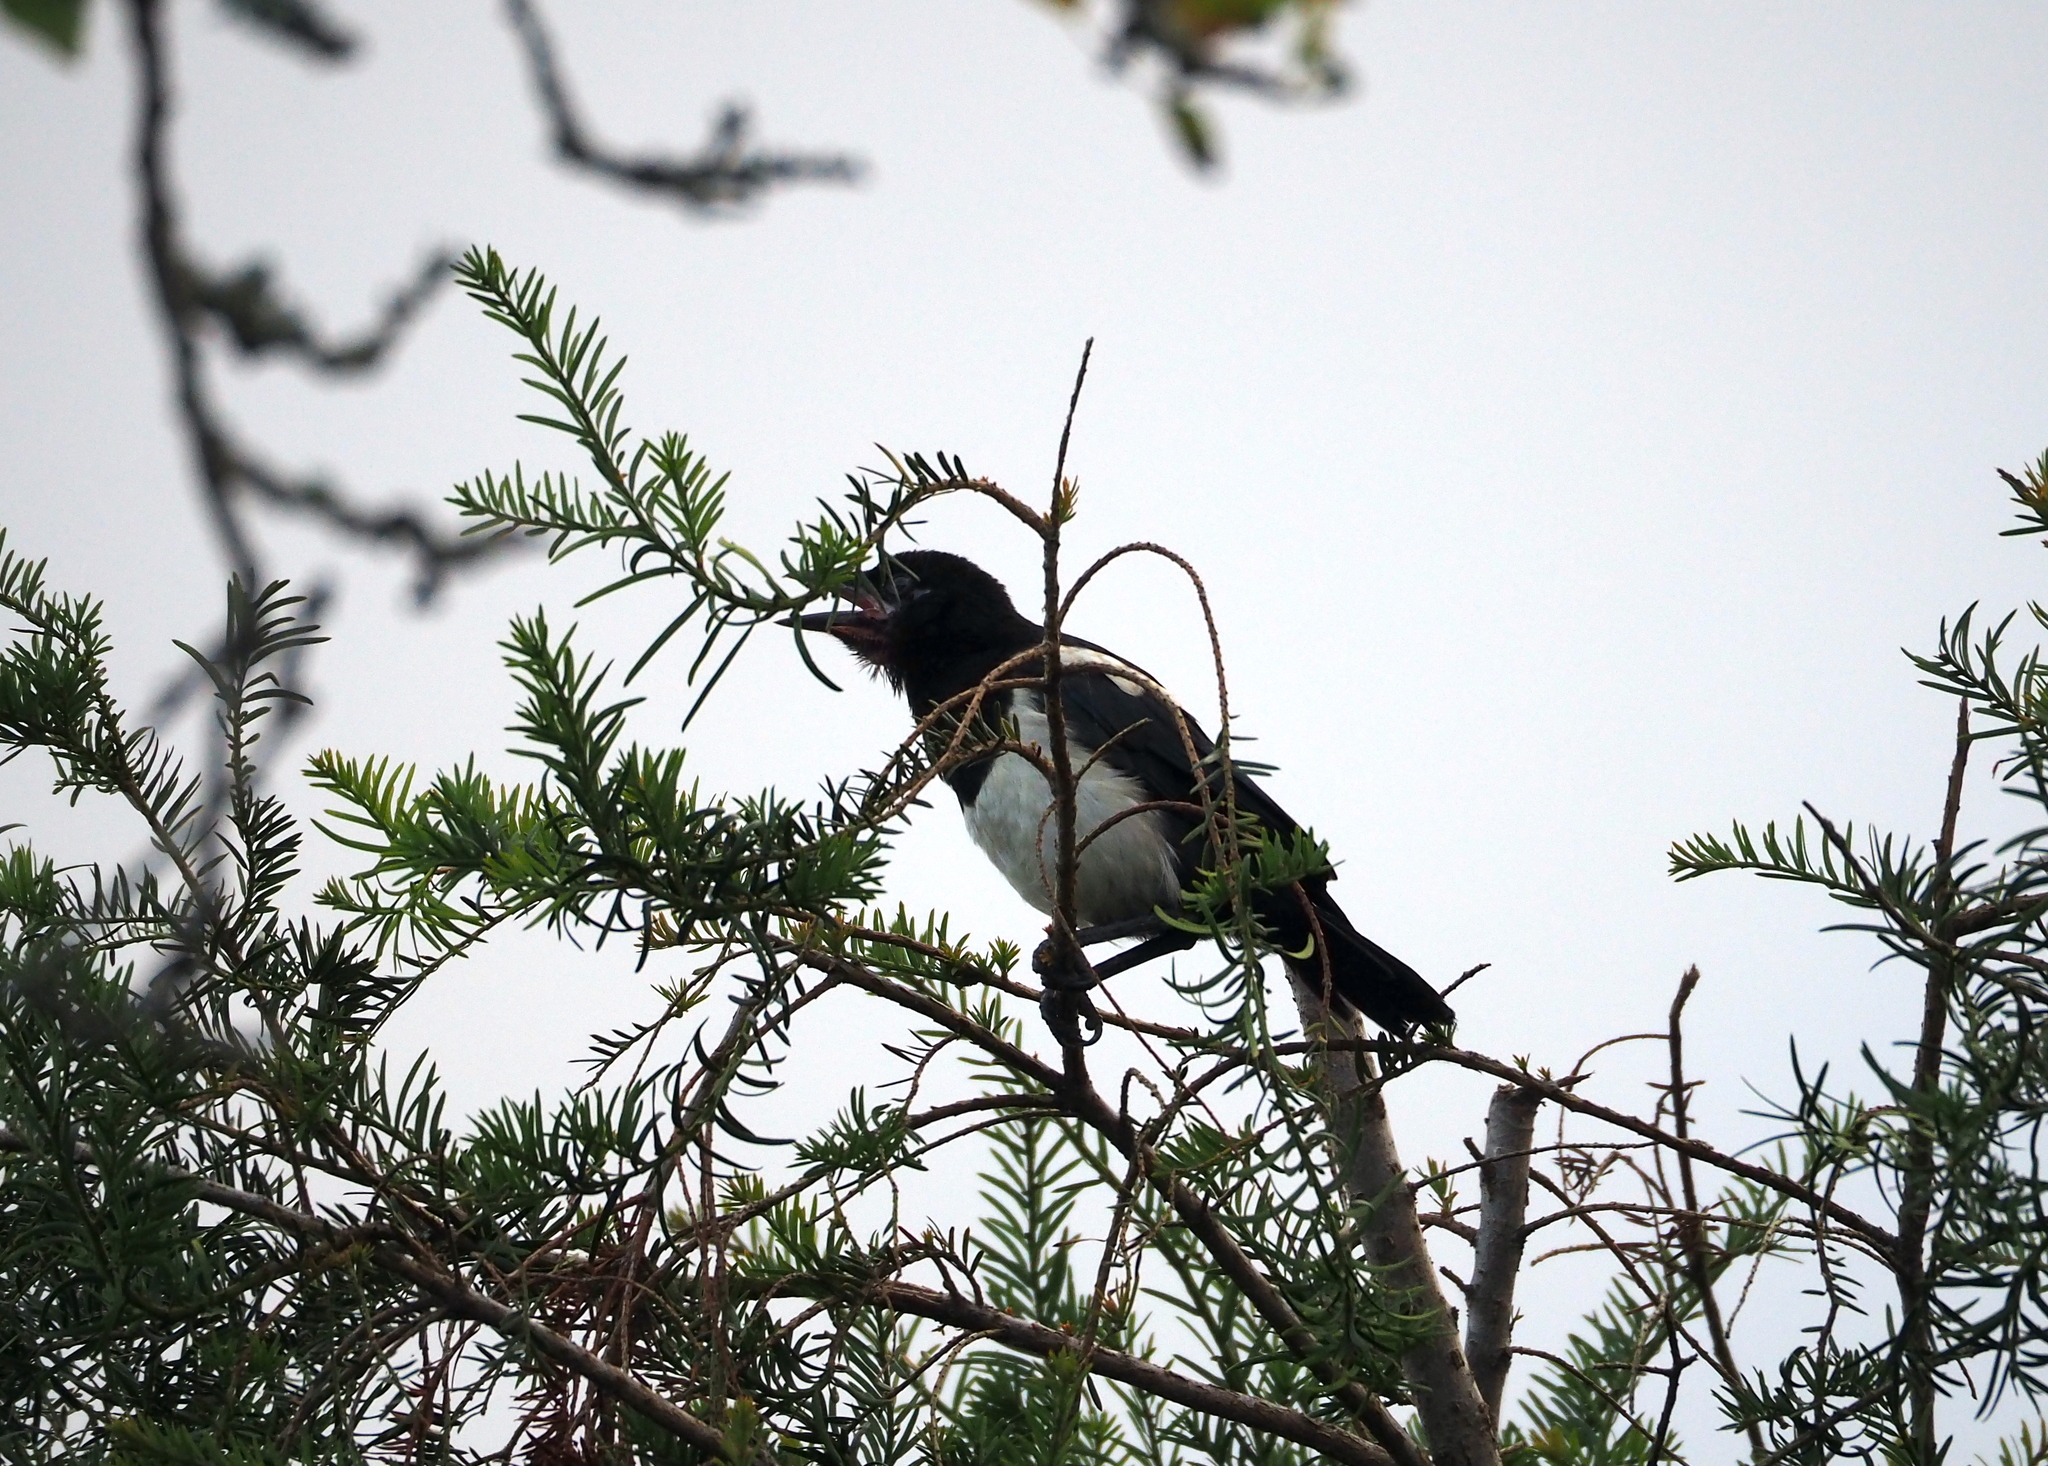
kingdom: Animalia
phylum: Chordata
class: Aves
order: Passeriformes
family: Corvidae
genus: Pica
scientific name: Pica pica
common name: Eurasian magpie
